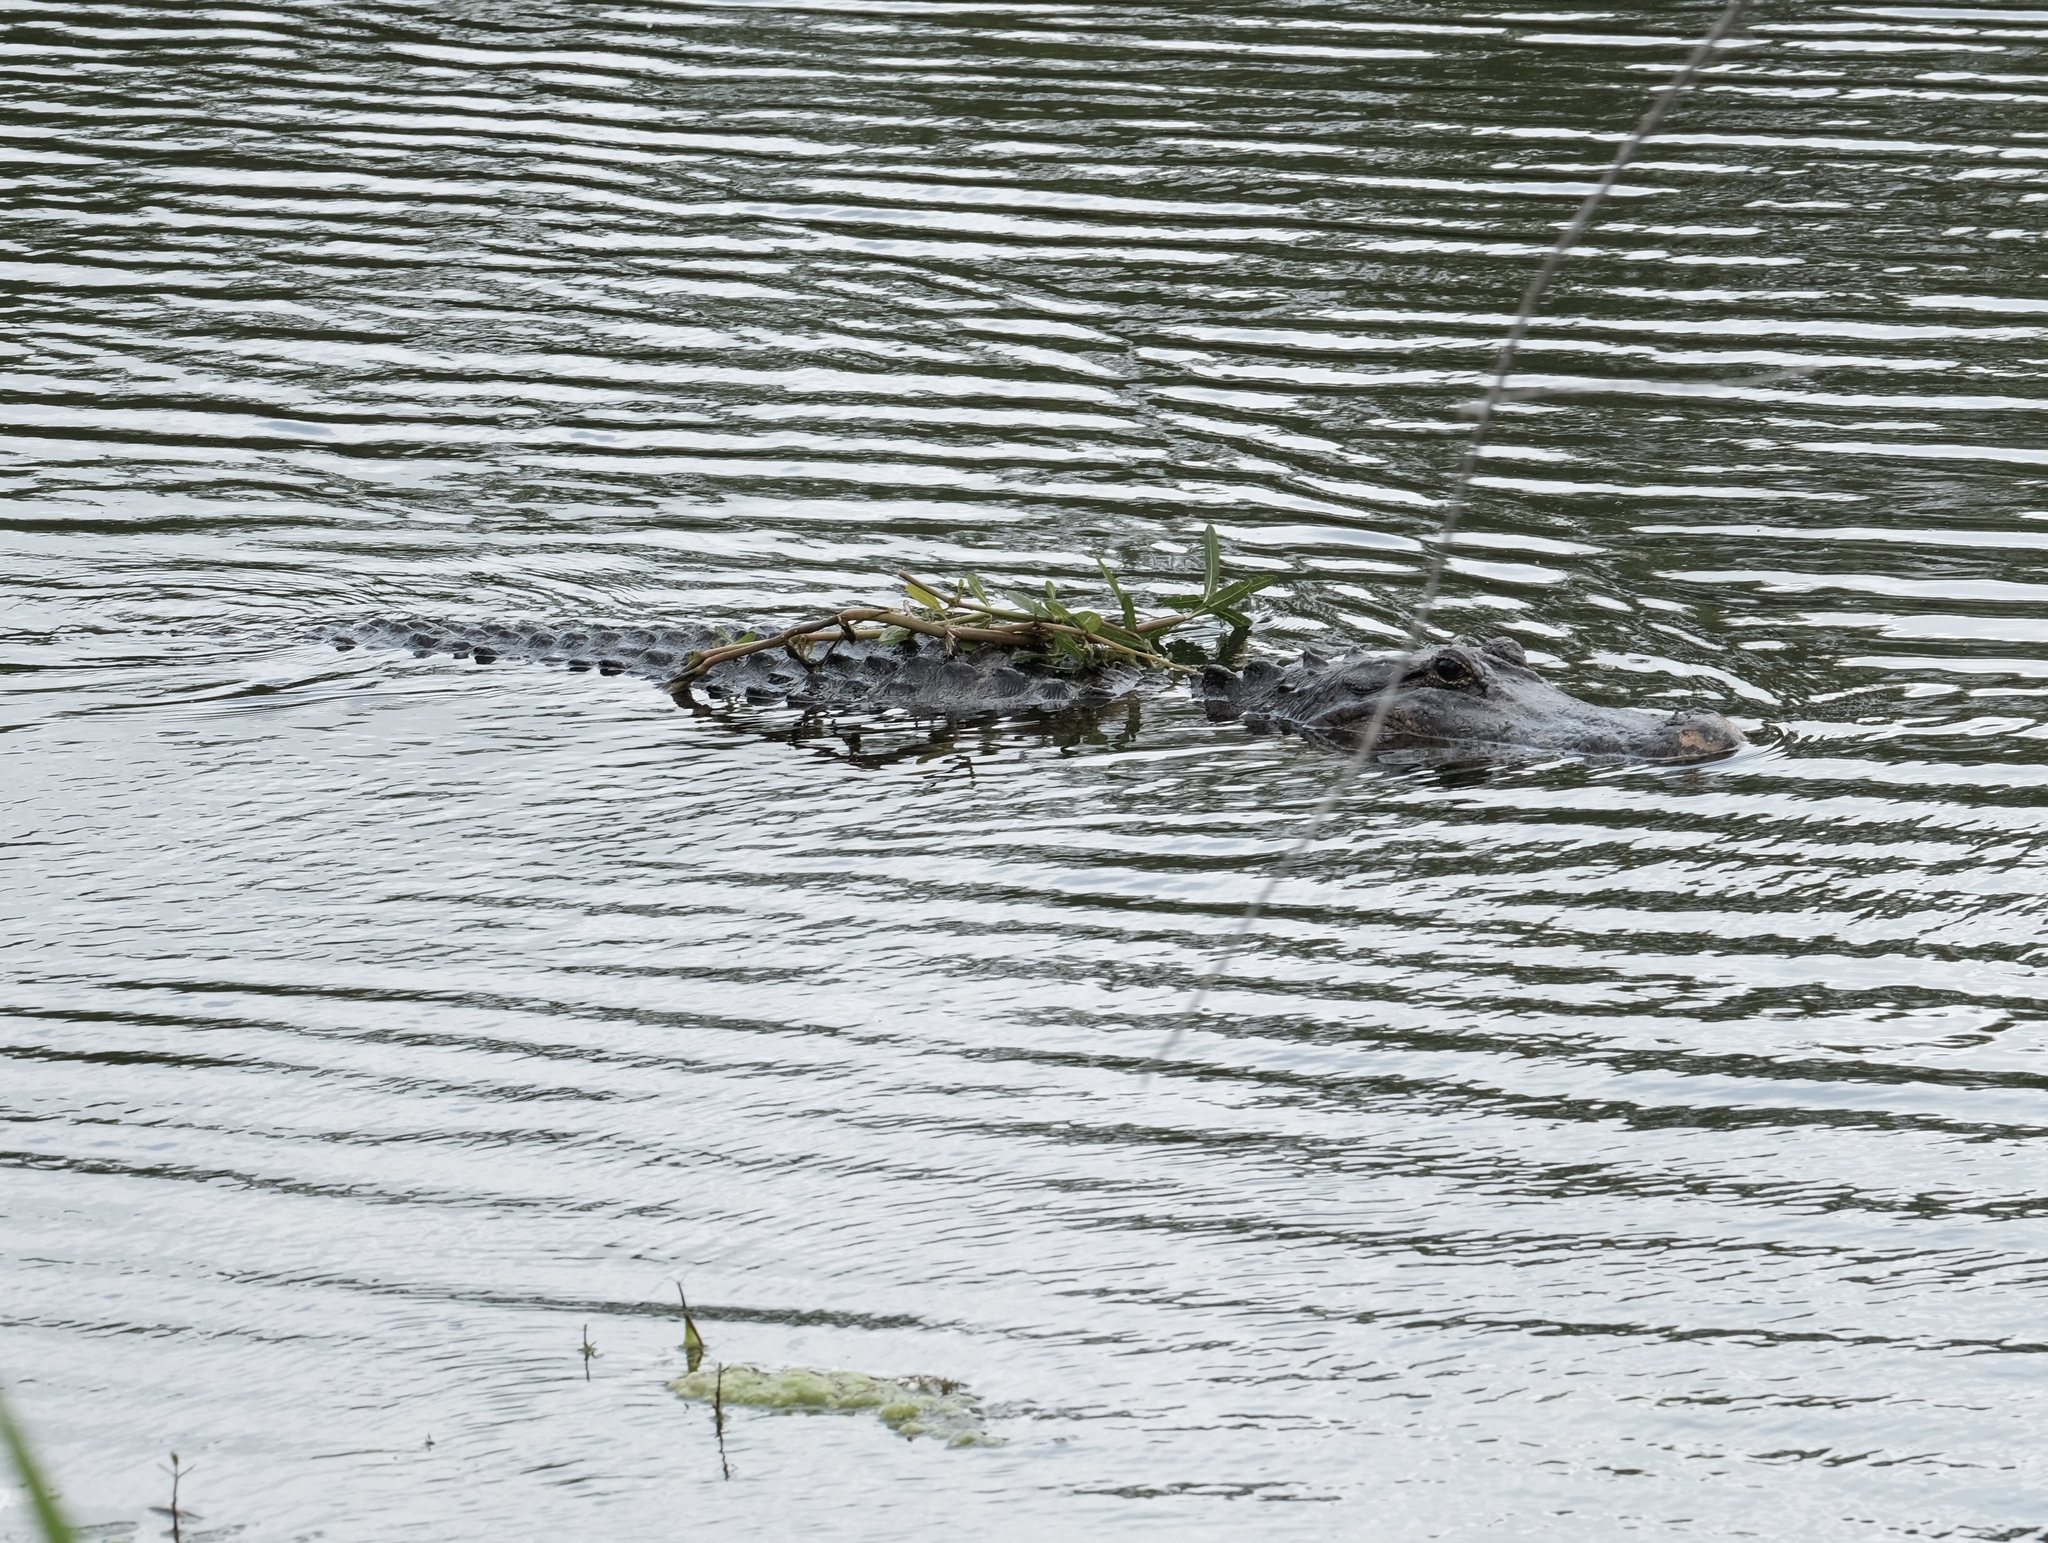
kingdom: Animalia
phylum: Chordata
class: Crocodylia
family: Alligatoridae
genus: Alligator
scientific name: Alligator mississippiensis
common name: American alligator
